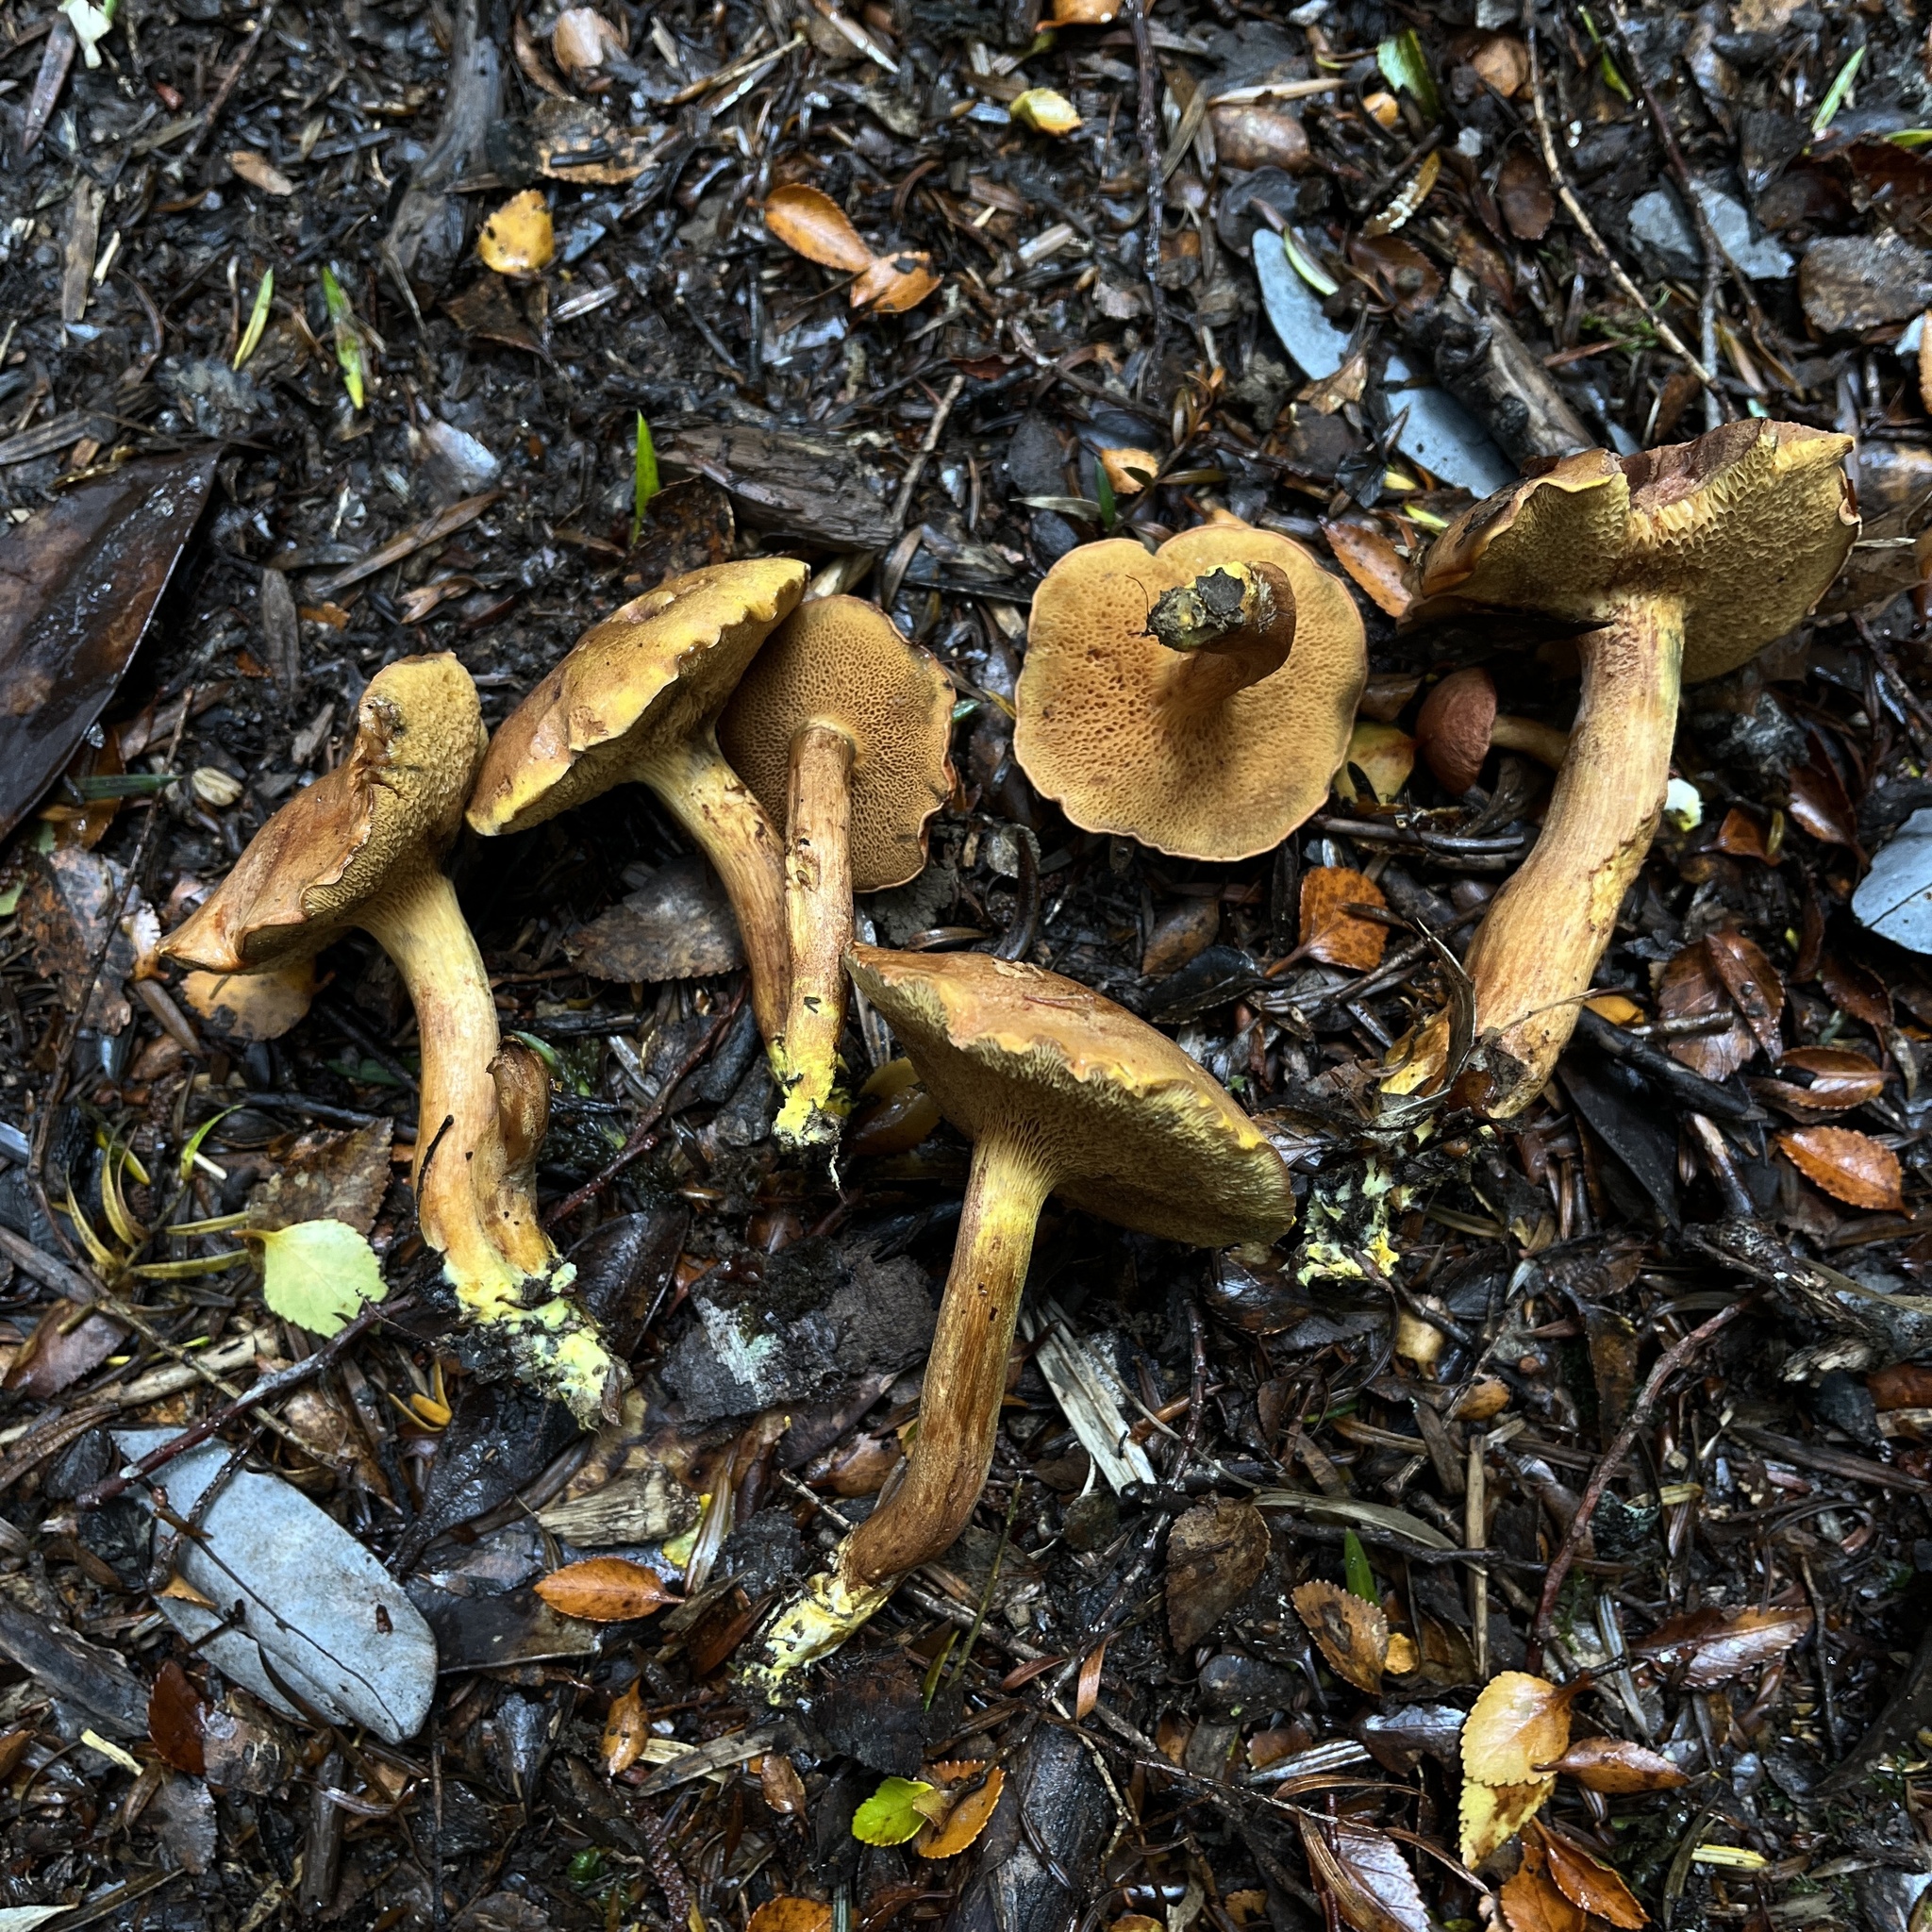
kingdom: Fungi
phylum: Basidiomycota
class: Agaricomycetes
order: Boletales
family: Boletaceae
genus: Chalciporus
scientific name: Chalciporus piperatus
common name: Peppery bolete
